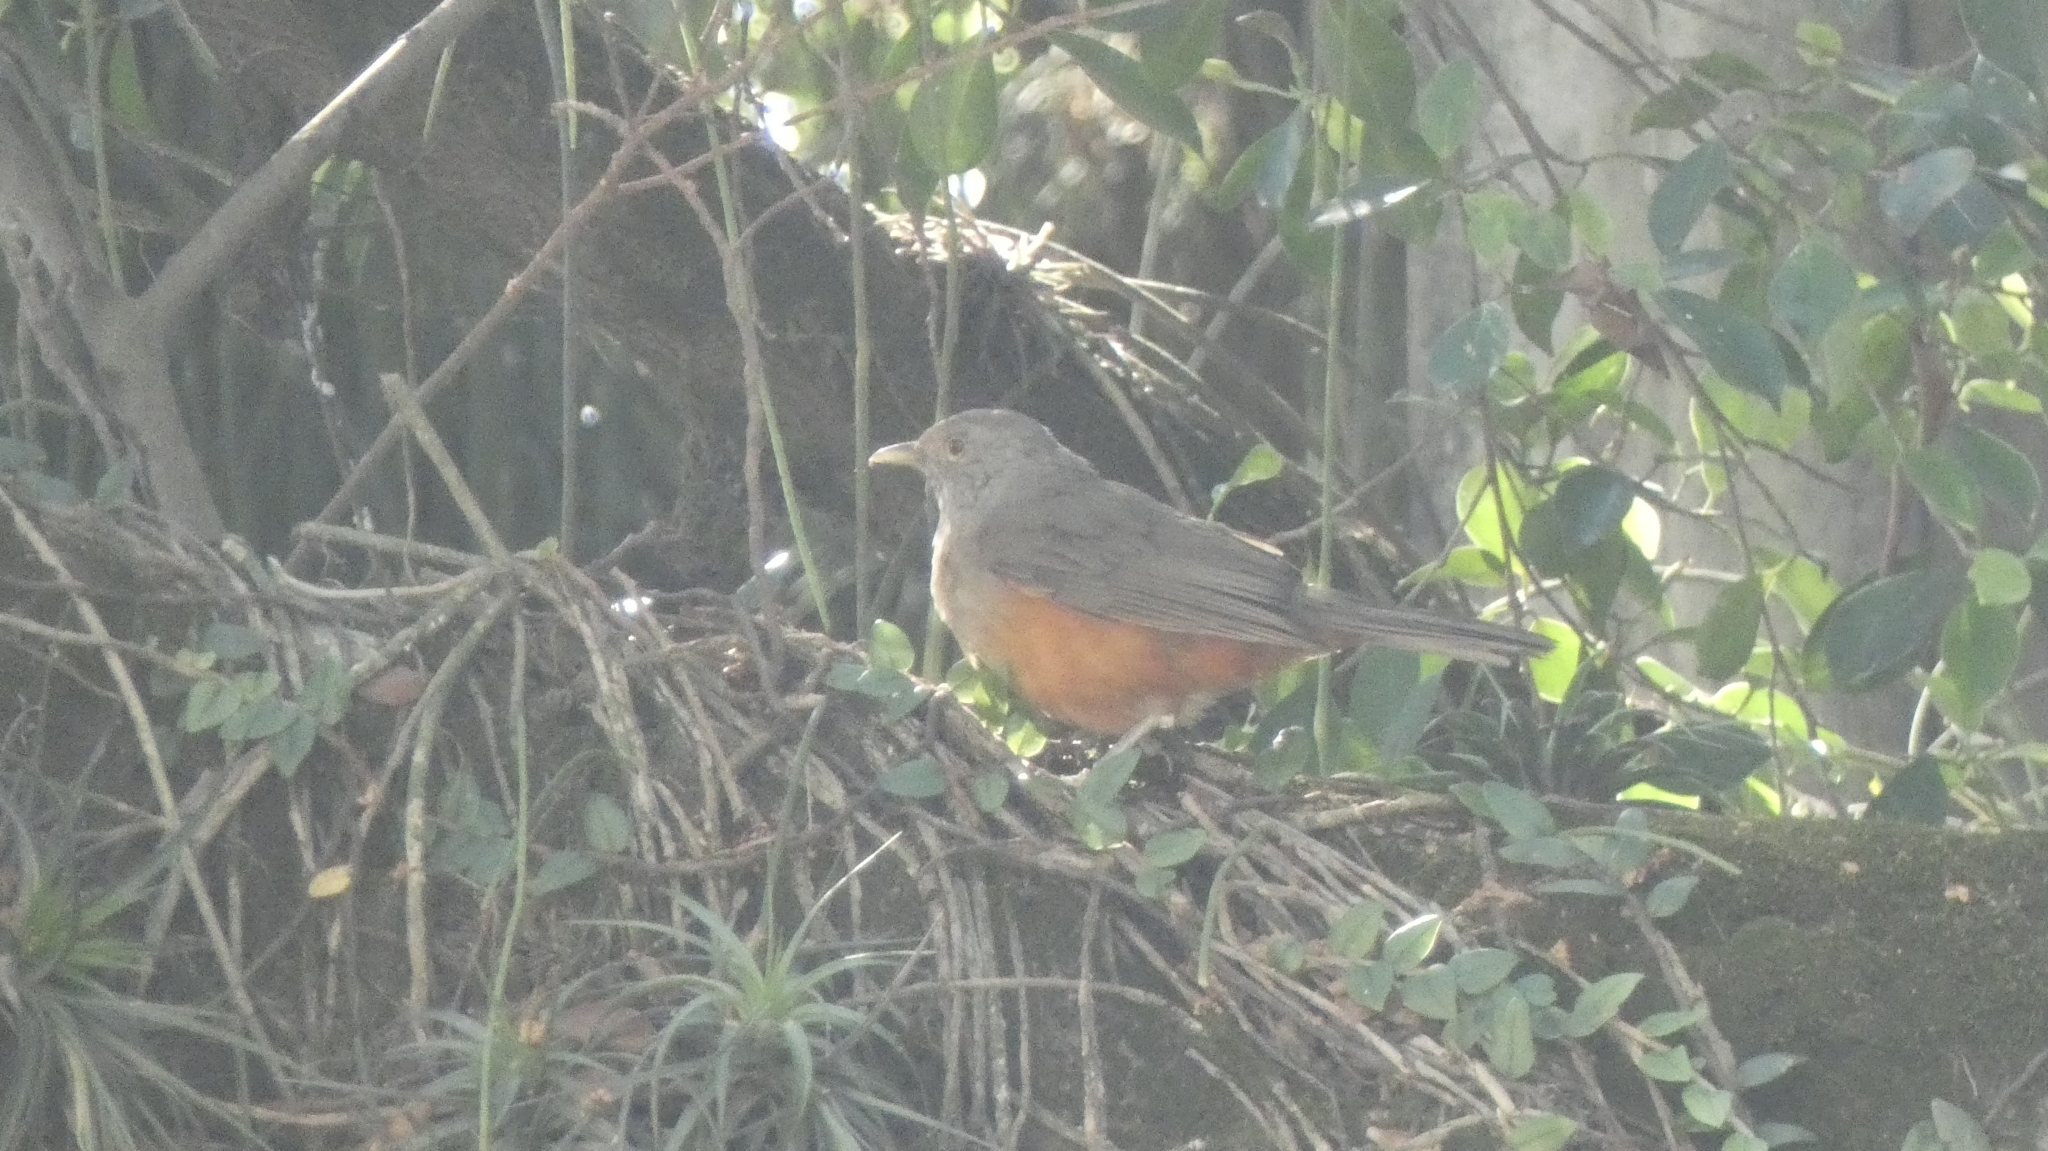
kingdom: Animalia
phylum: Chordata
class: Aves
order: Passeriformes
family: Turdidae
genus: Turdus
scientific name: Turdus rufiventris
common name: Rufous-bellied thrush
